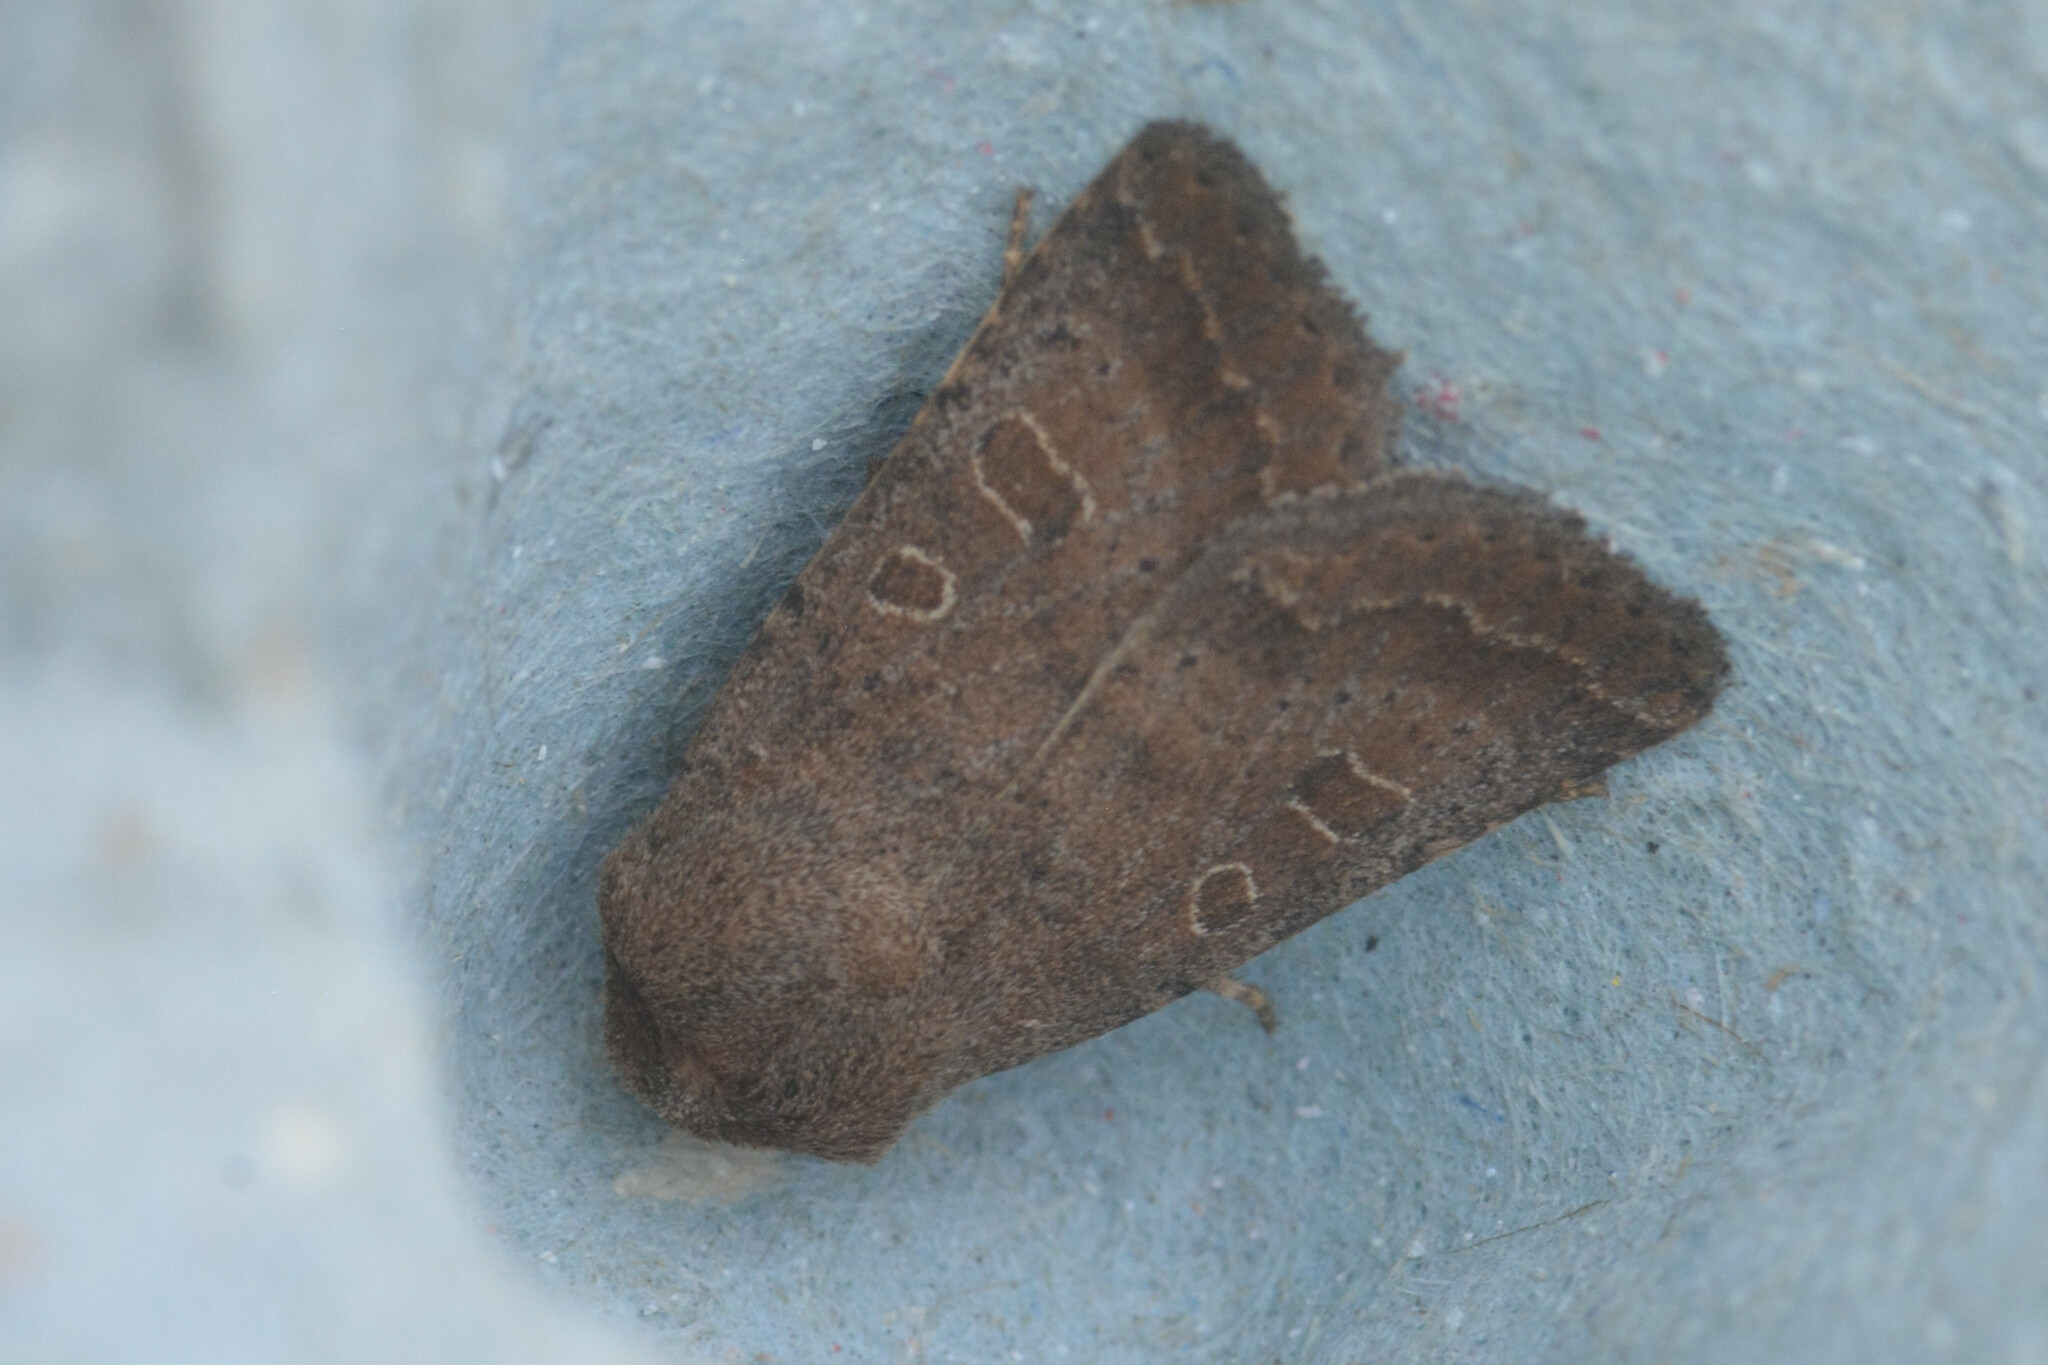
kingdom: Animalia
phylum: Arthropoda
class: Insecta
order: Lepidoptera
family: Noctuidae
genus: Hoplodrina
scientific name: Hoplodrina blanda
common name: Rustic
